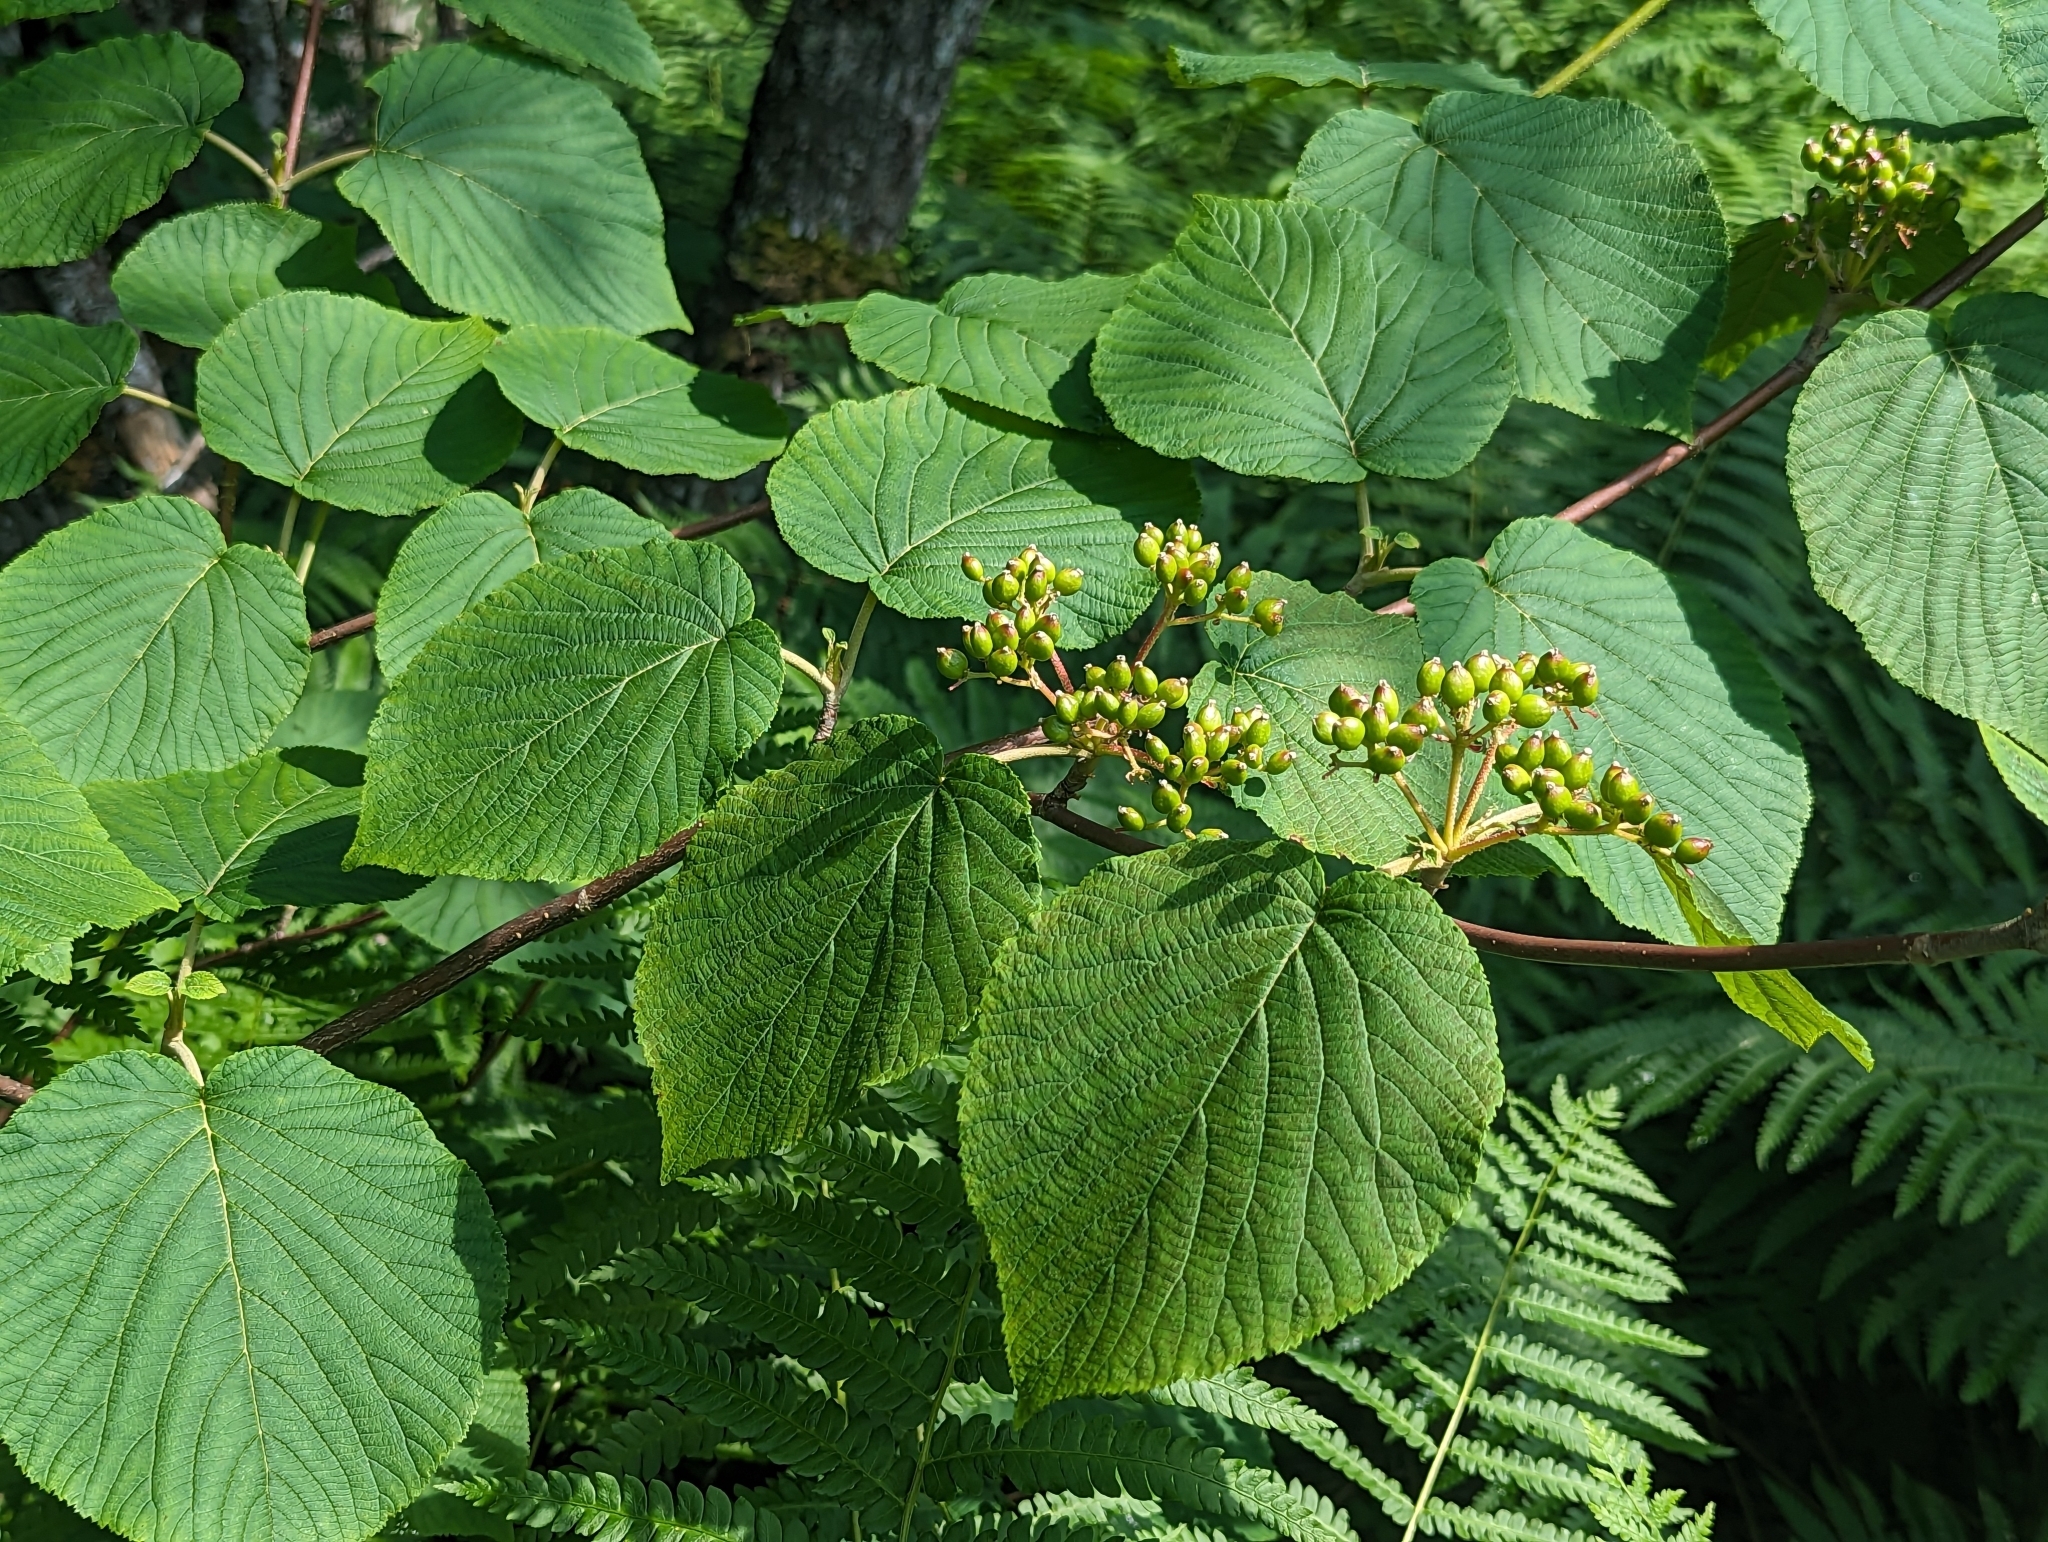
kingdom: Plantae
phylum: Tracheophyta
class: Magnoliopsida
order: Dipsacales
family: Viburnaceae
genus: Viburnum
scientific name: Viburnum lantanoides
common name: Hobblebush
